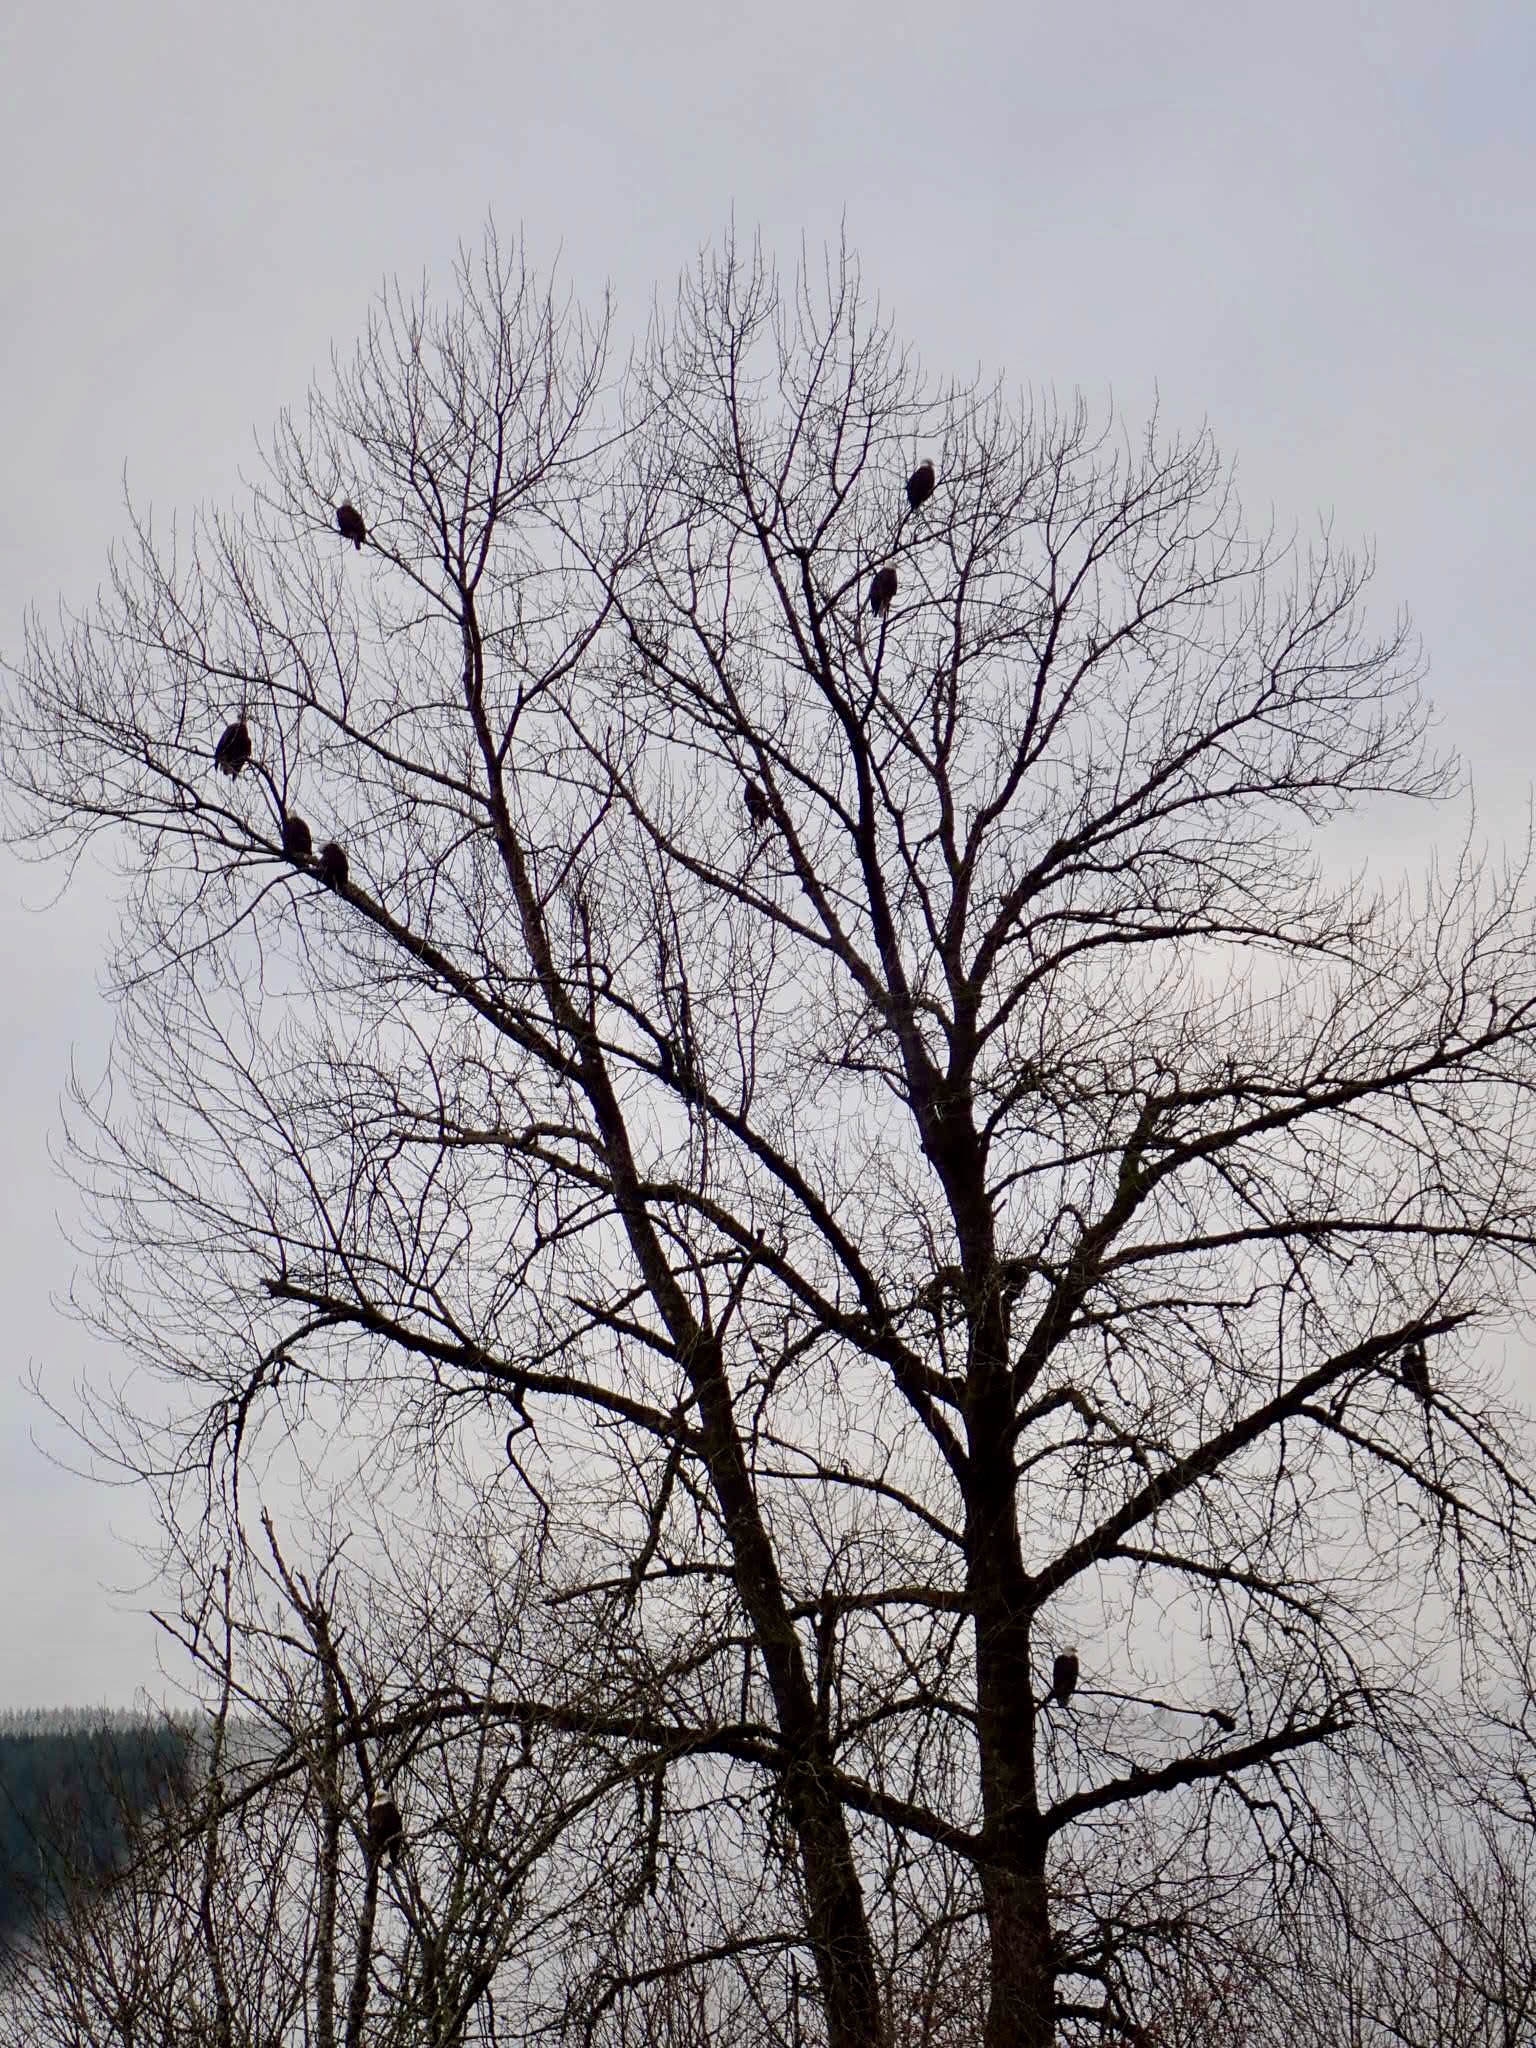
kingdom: Animalia
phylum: Chordata
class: Aves
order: Accipitriformes
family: Accipitridae
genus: Haliaeetus
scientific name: Haliaeetus leucocephalus
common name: Bald eagle
